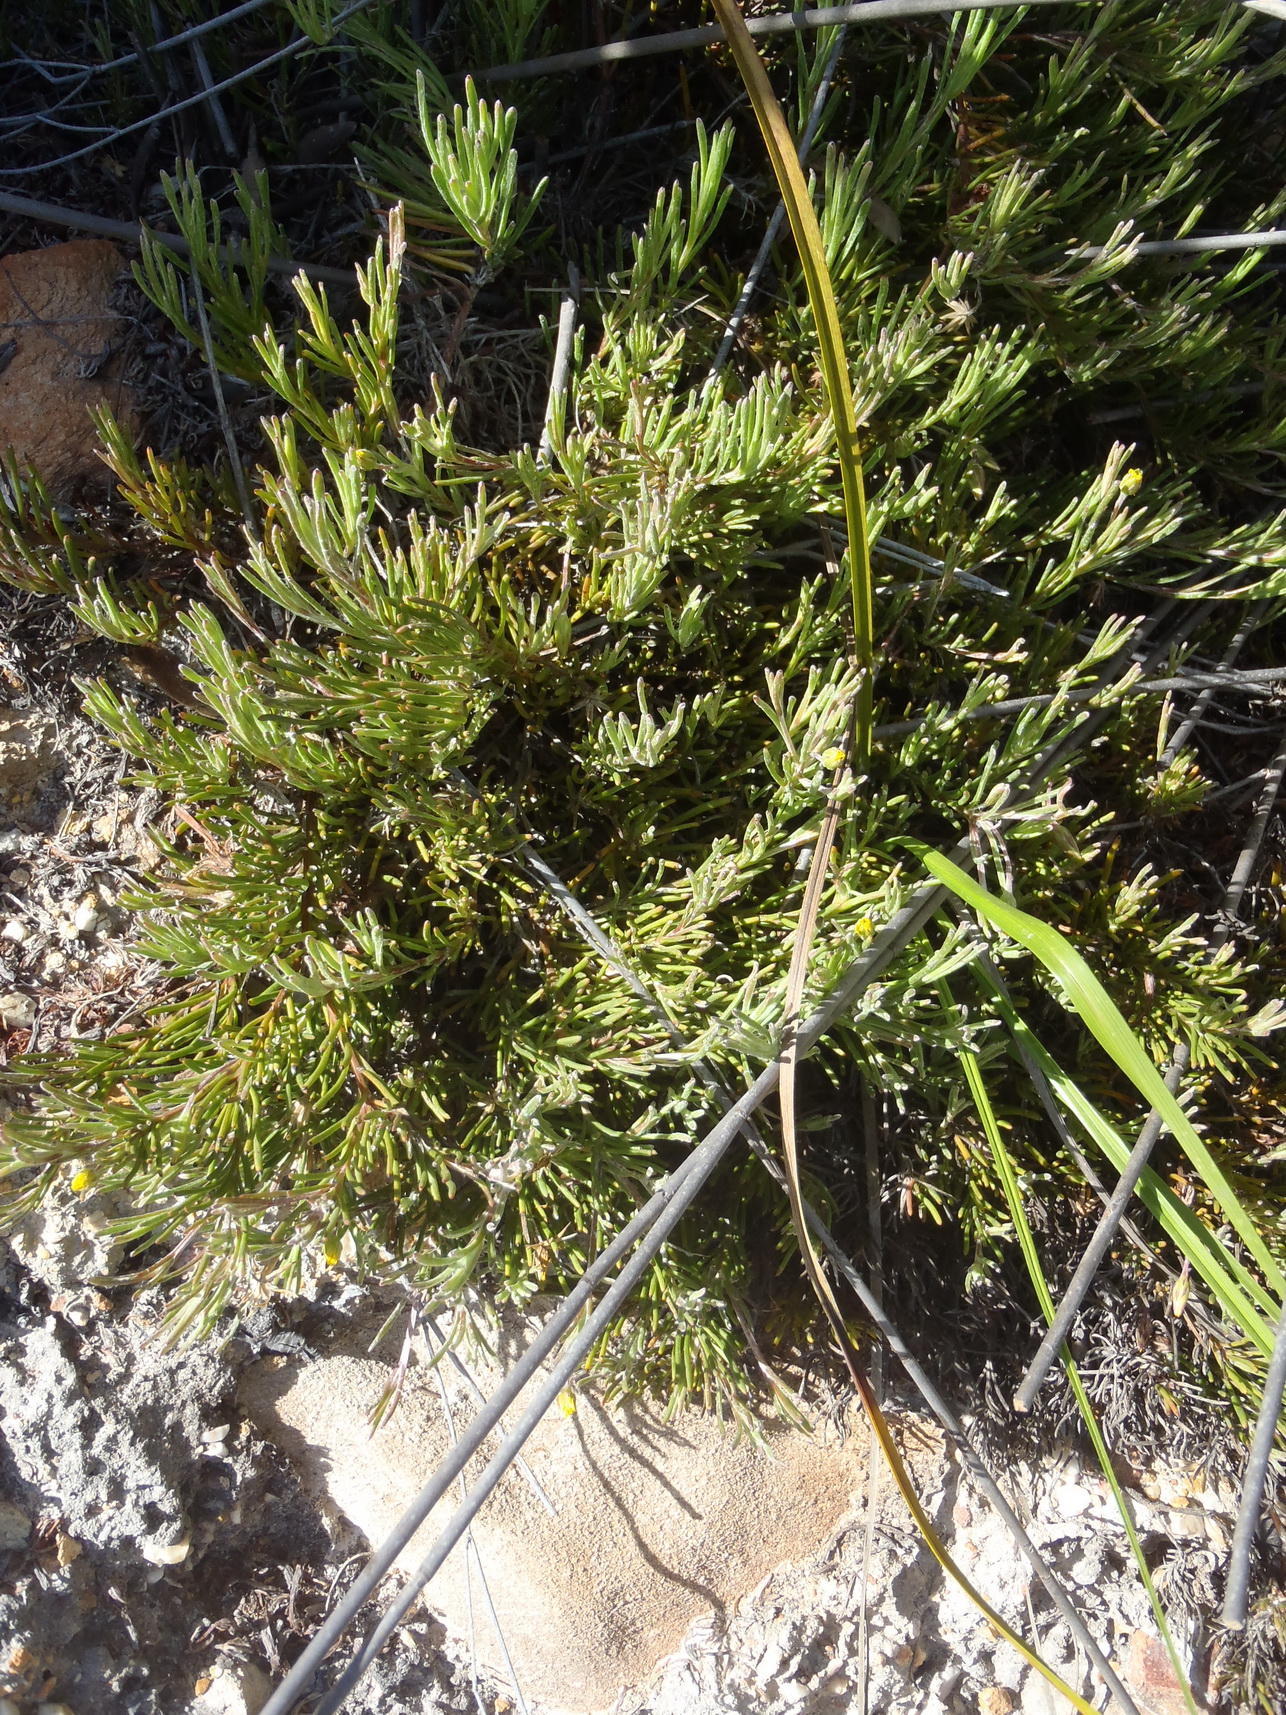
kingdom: Plantae
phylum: Tracheophyta
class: Magnoliopsida
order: Asterales
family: Asteraceae
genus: Osteospermum
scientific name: Osteospermum aciphyllum
